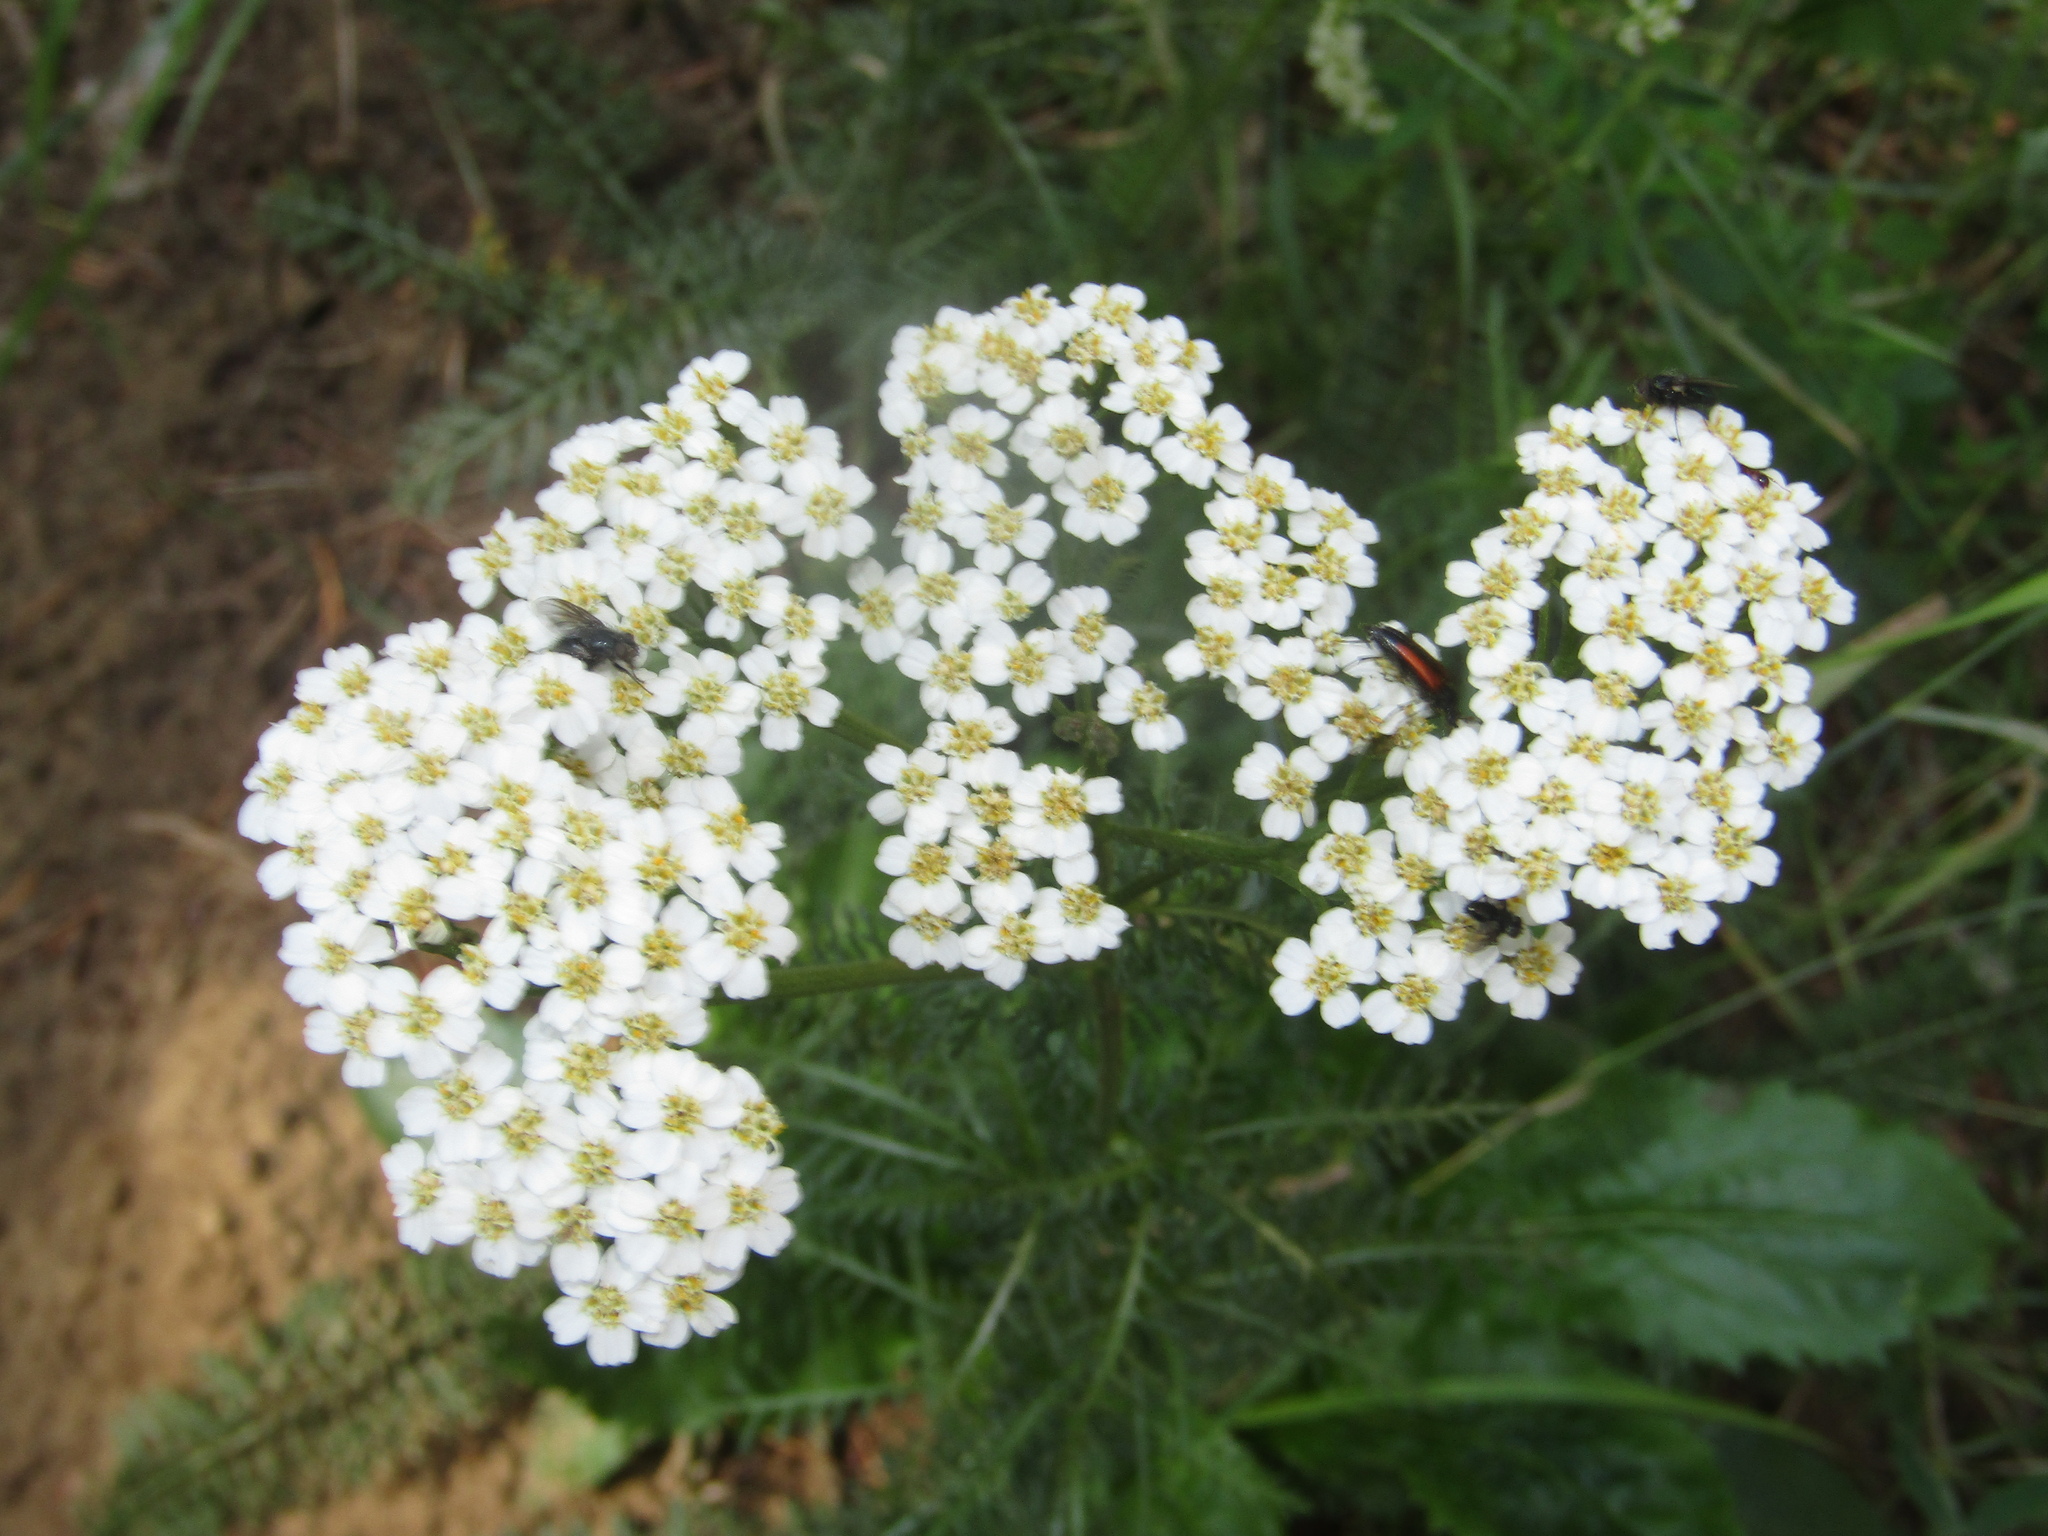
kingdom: Plantae
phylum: Tracheophyta
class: Magnoliopsida
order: Asterales
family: Asteraceae
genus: Achillea
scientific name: Achillea millefolium
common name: Yarrow
